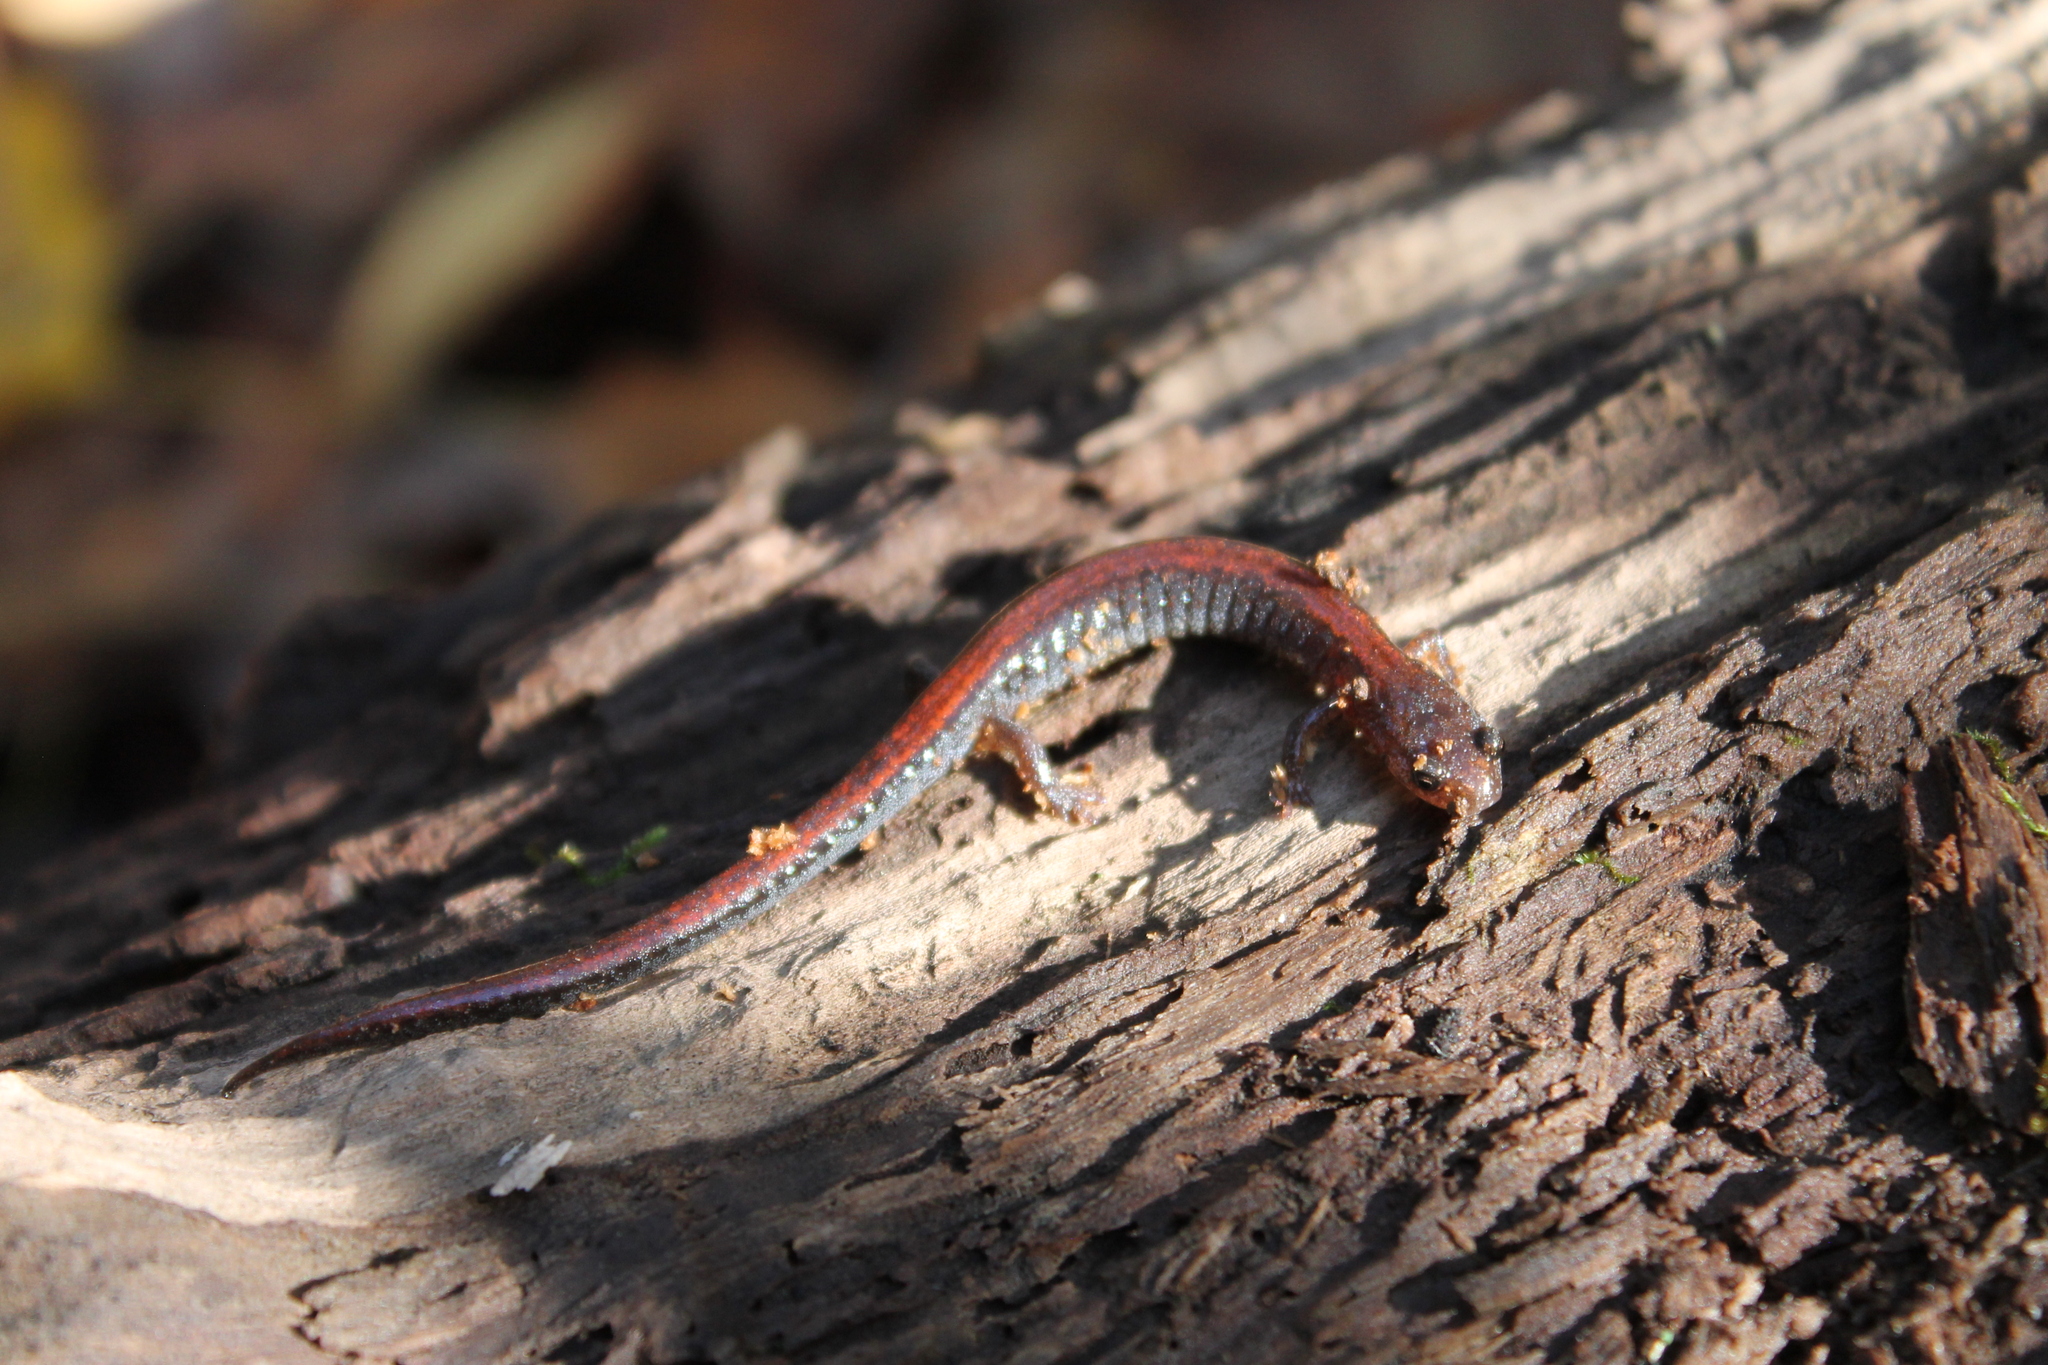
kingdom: Animalia
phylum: Chordata
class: Amphibia
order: Caudata
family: Plethodontidae
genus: Plethodon
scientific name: Plethodon dorsalis
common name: Northern zigzag salamander
